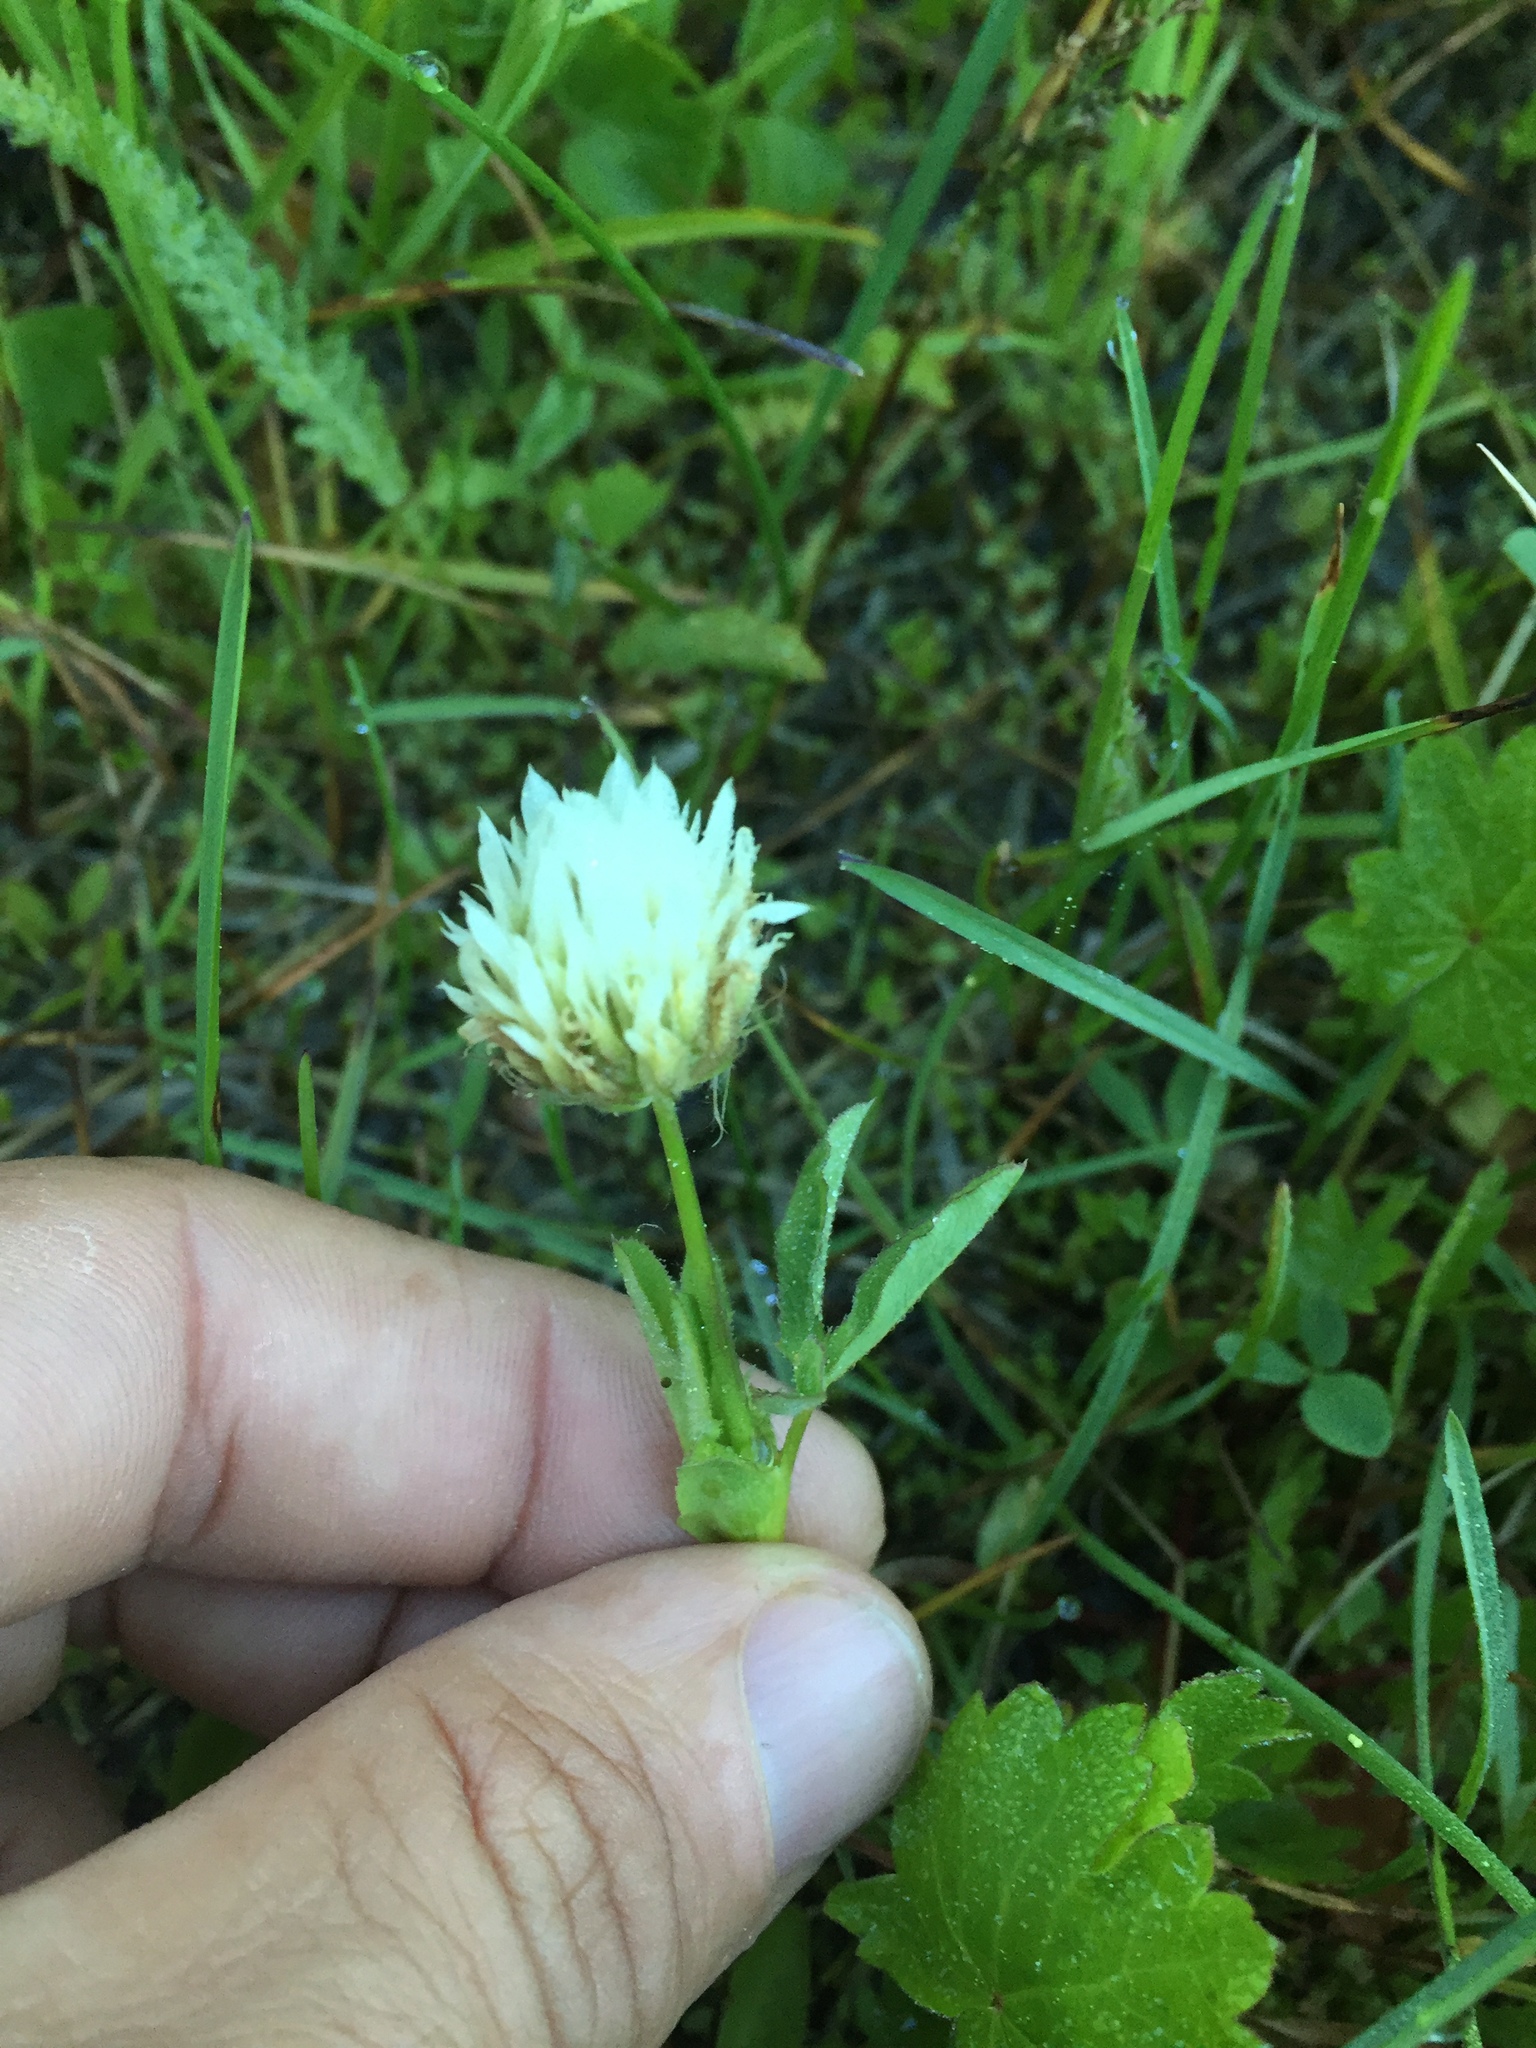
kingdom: Plantae
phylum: Tracheophyta
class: Magnoliopsida
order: Fabales
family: Fabaceae
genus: Trifolium
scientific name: Trifolium longipes
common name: Long-stalk clover
